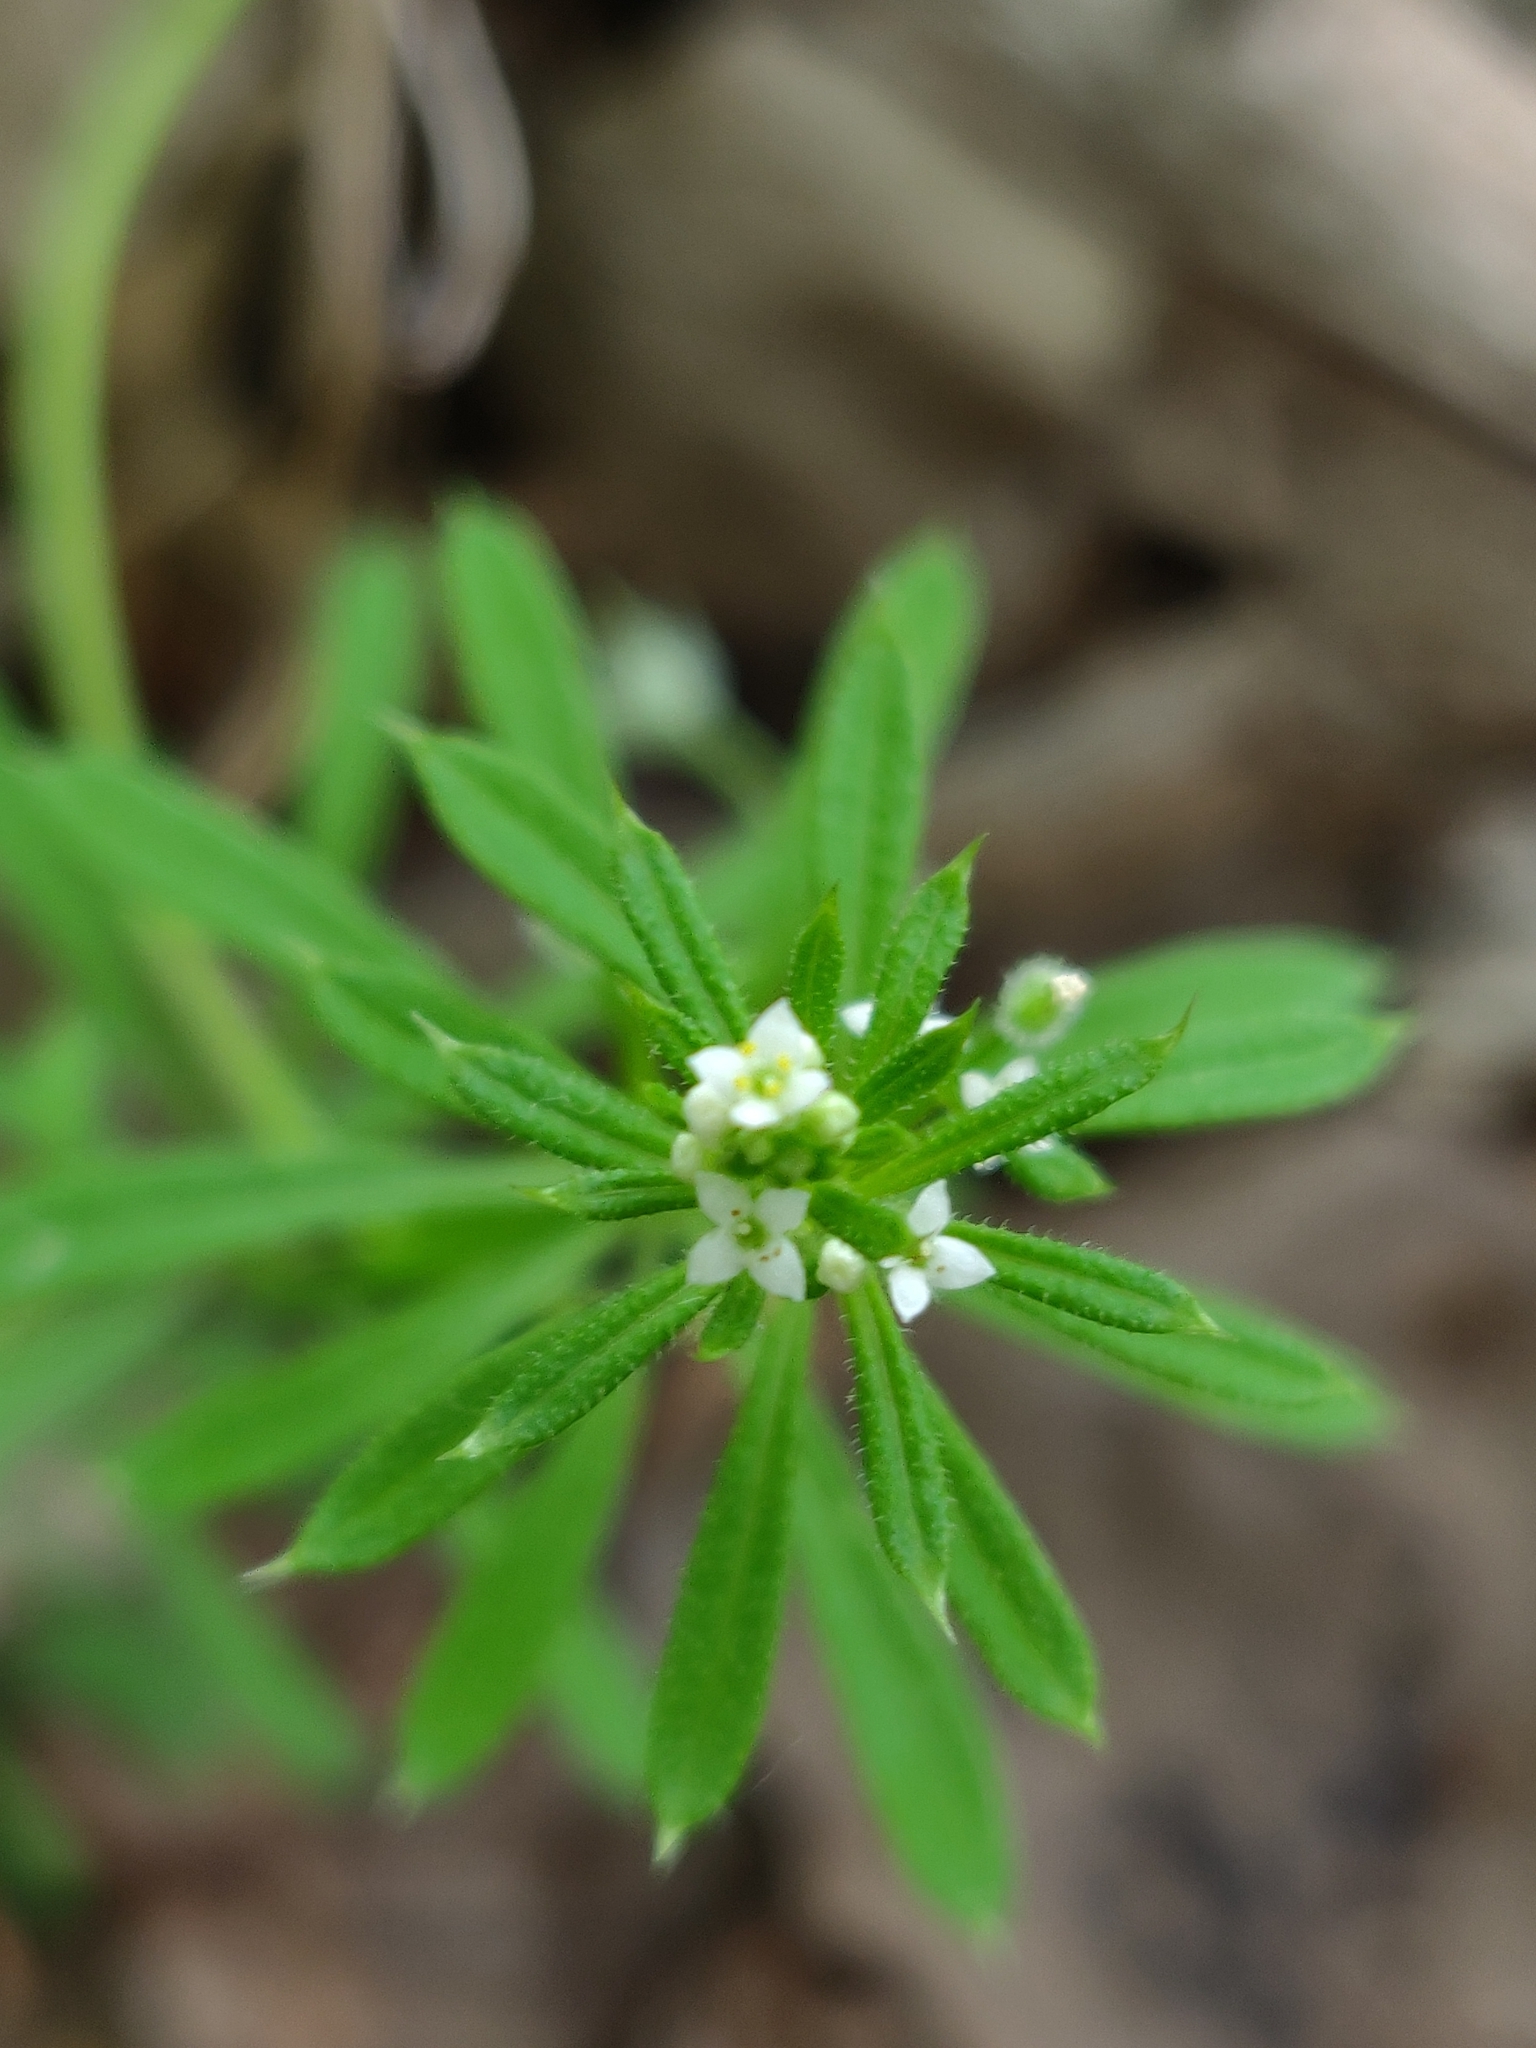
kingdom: Plantae
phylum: Tracheophyta
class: Magnoliopsida
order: Gentianales
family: Rubiaceae
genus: Galium
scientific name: Galium aparine
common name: Cleavers
